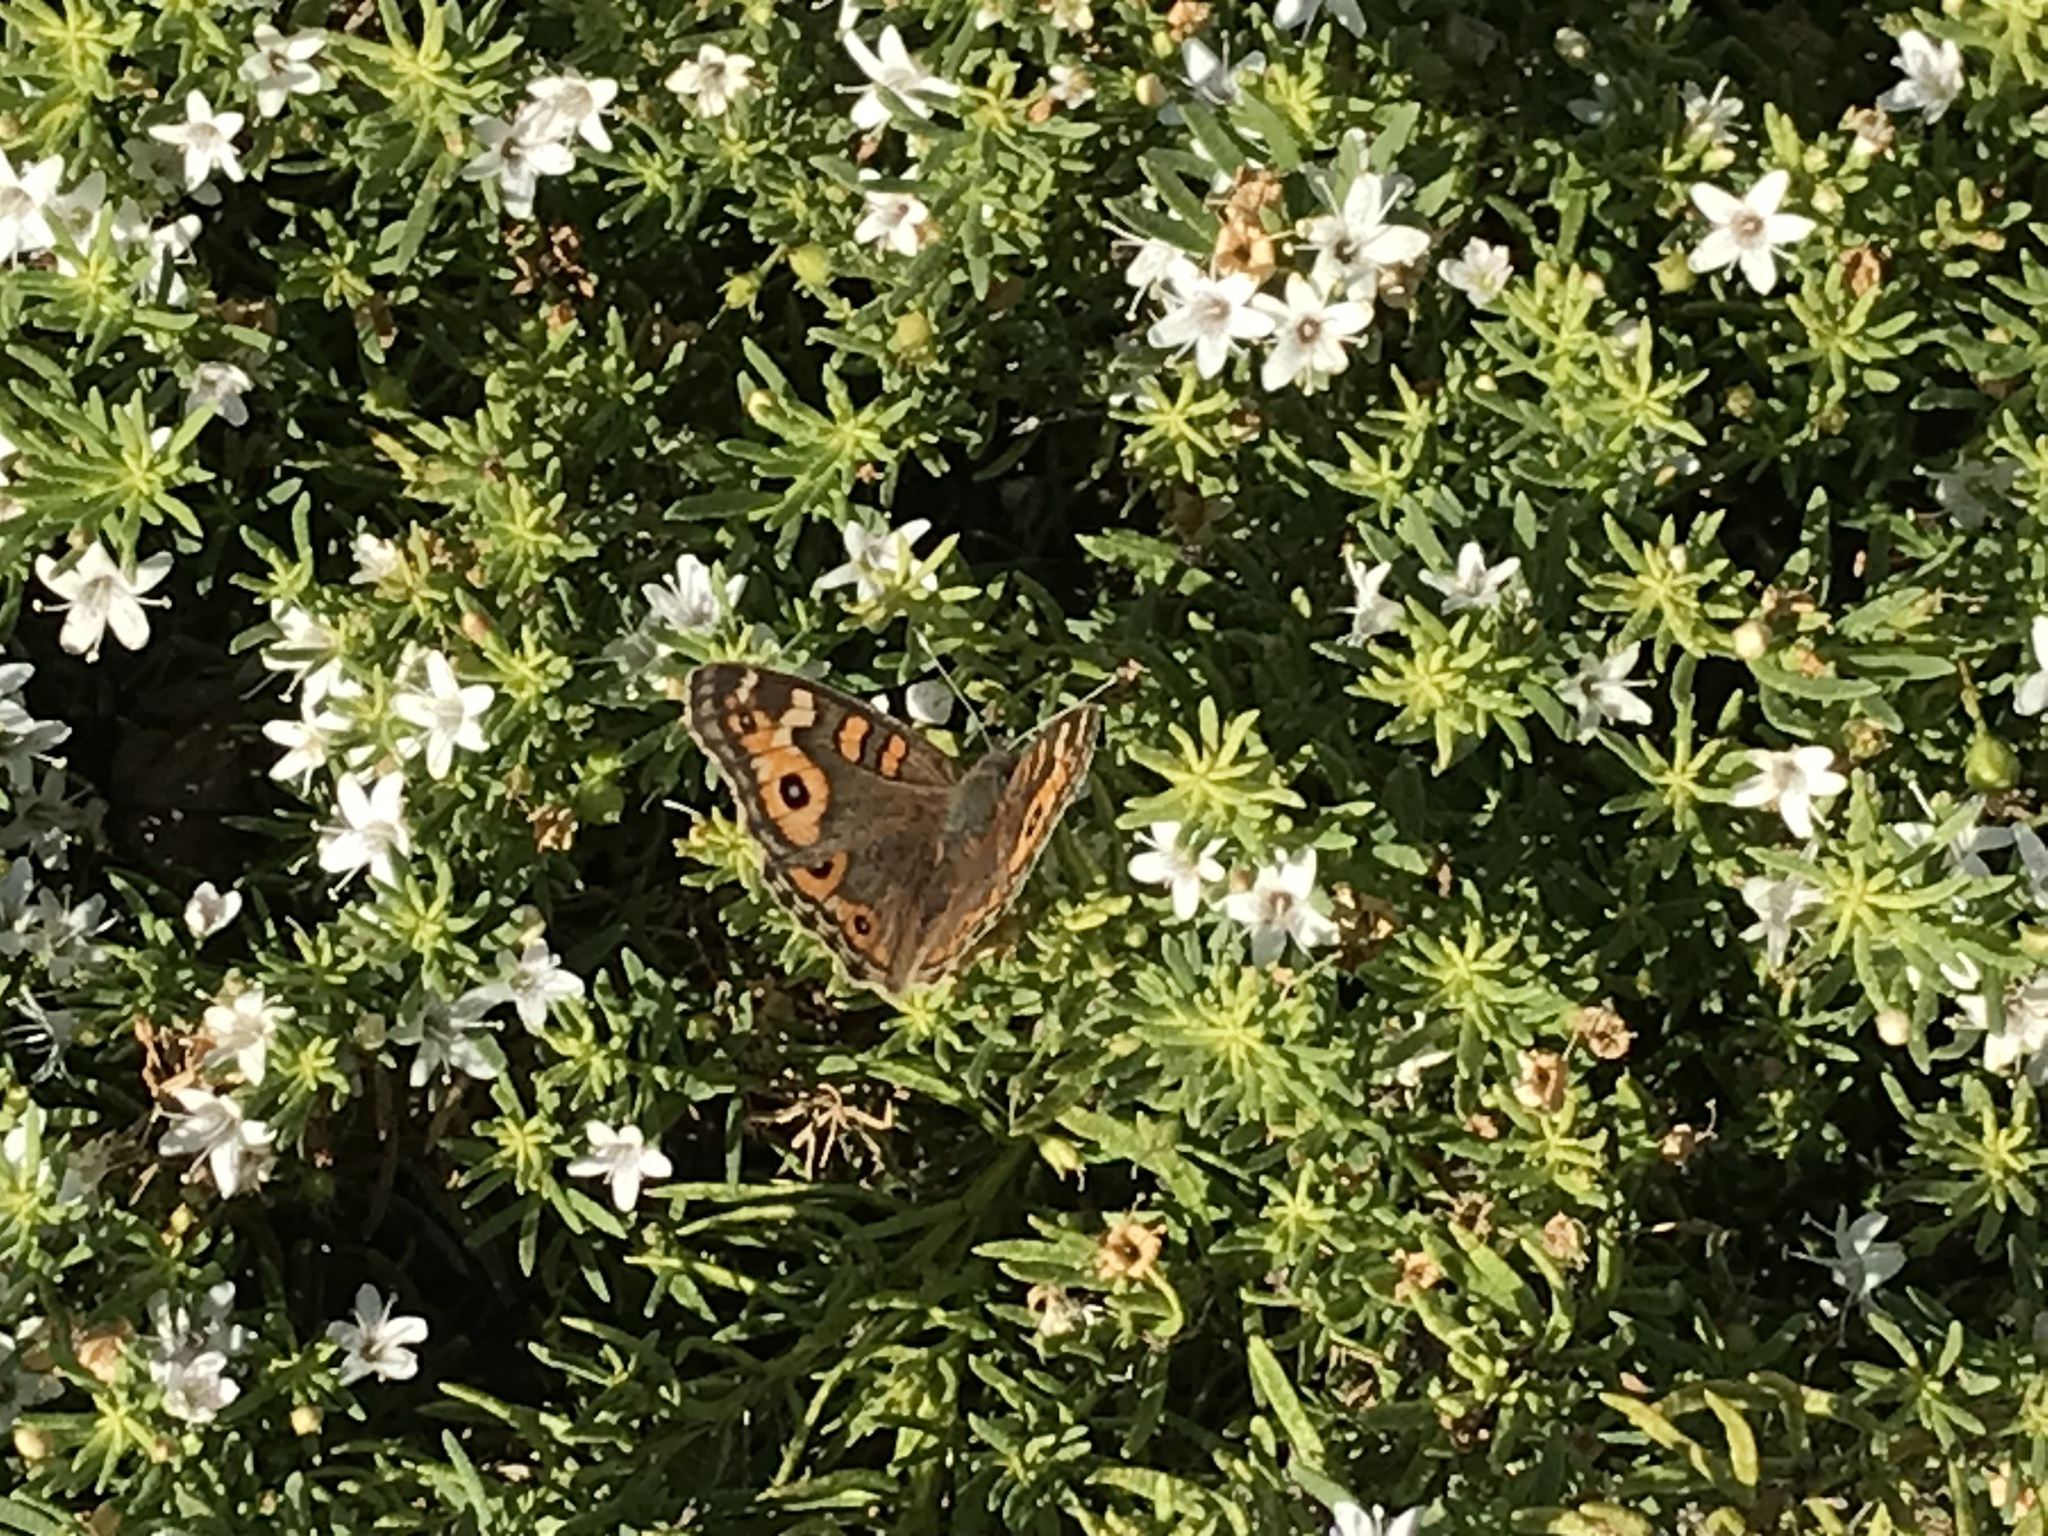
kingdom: Animalia
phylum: Arthropoda
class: Insecta
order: Lepidoptera
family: Nymphalidae
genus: Junonia
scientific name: Junonia villida
